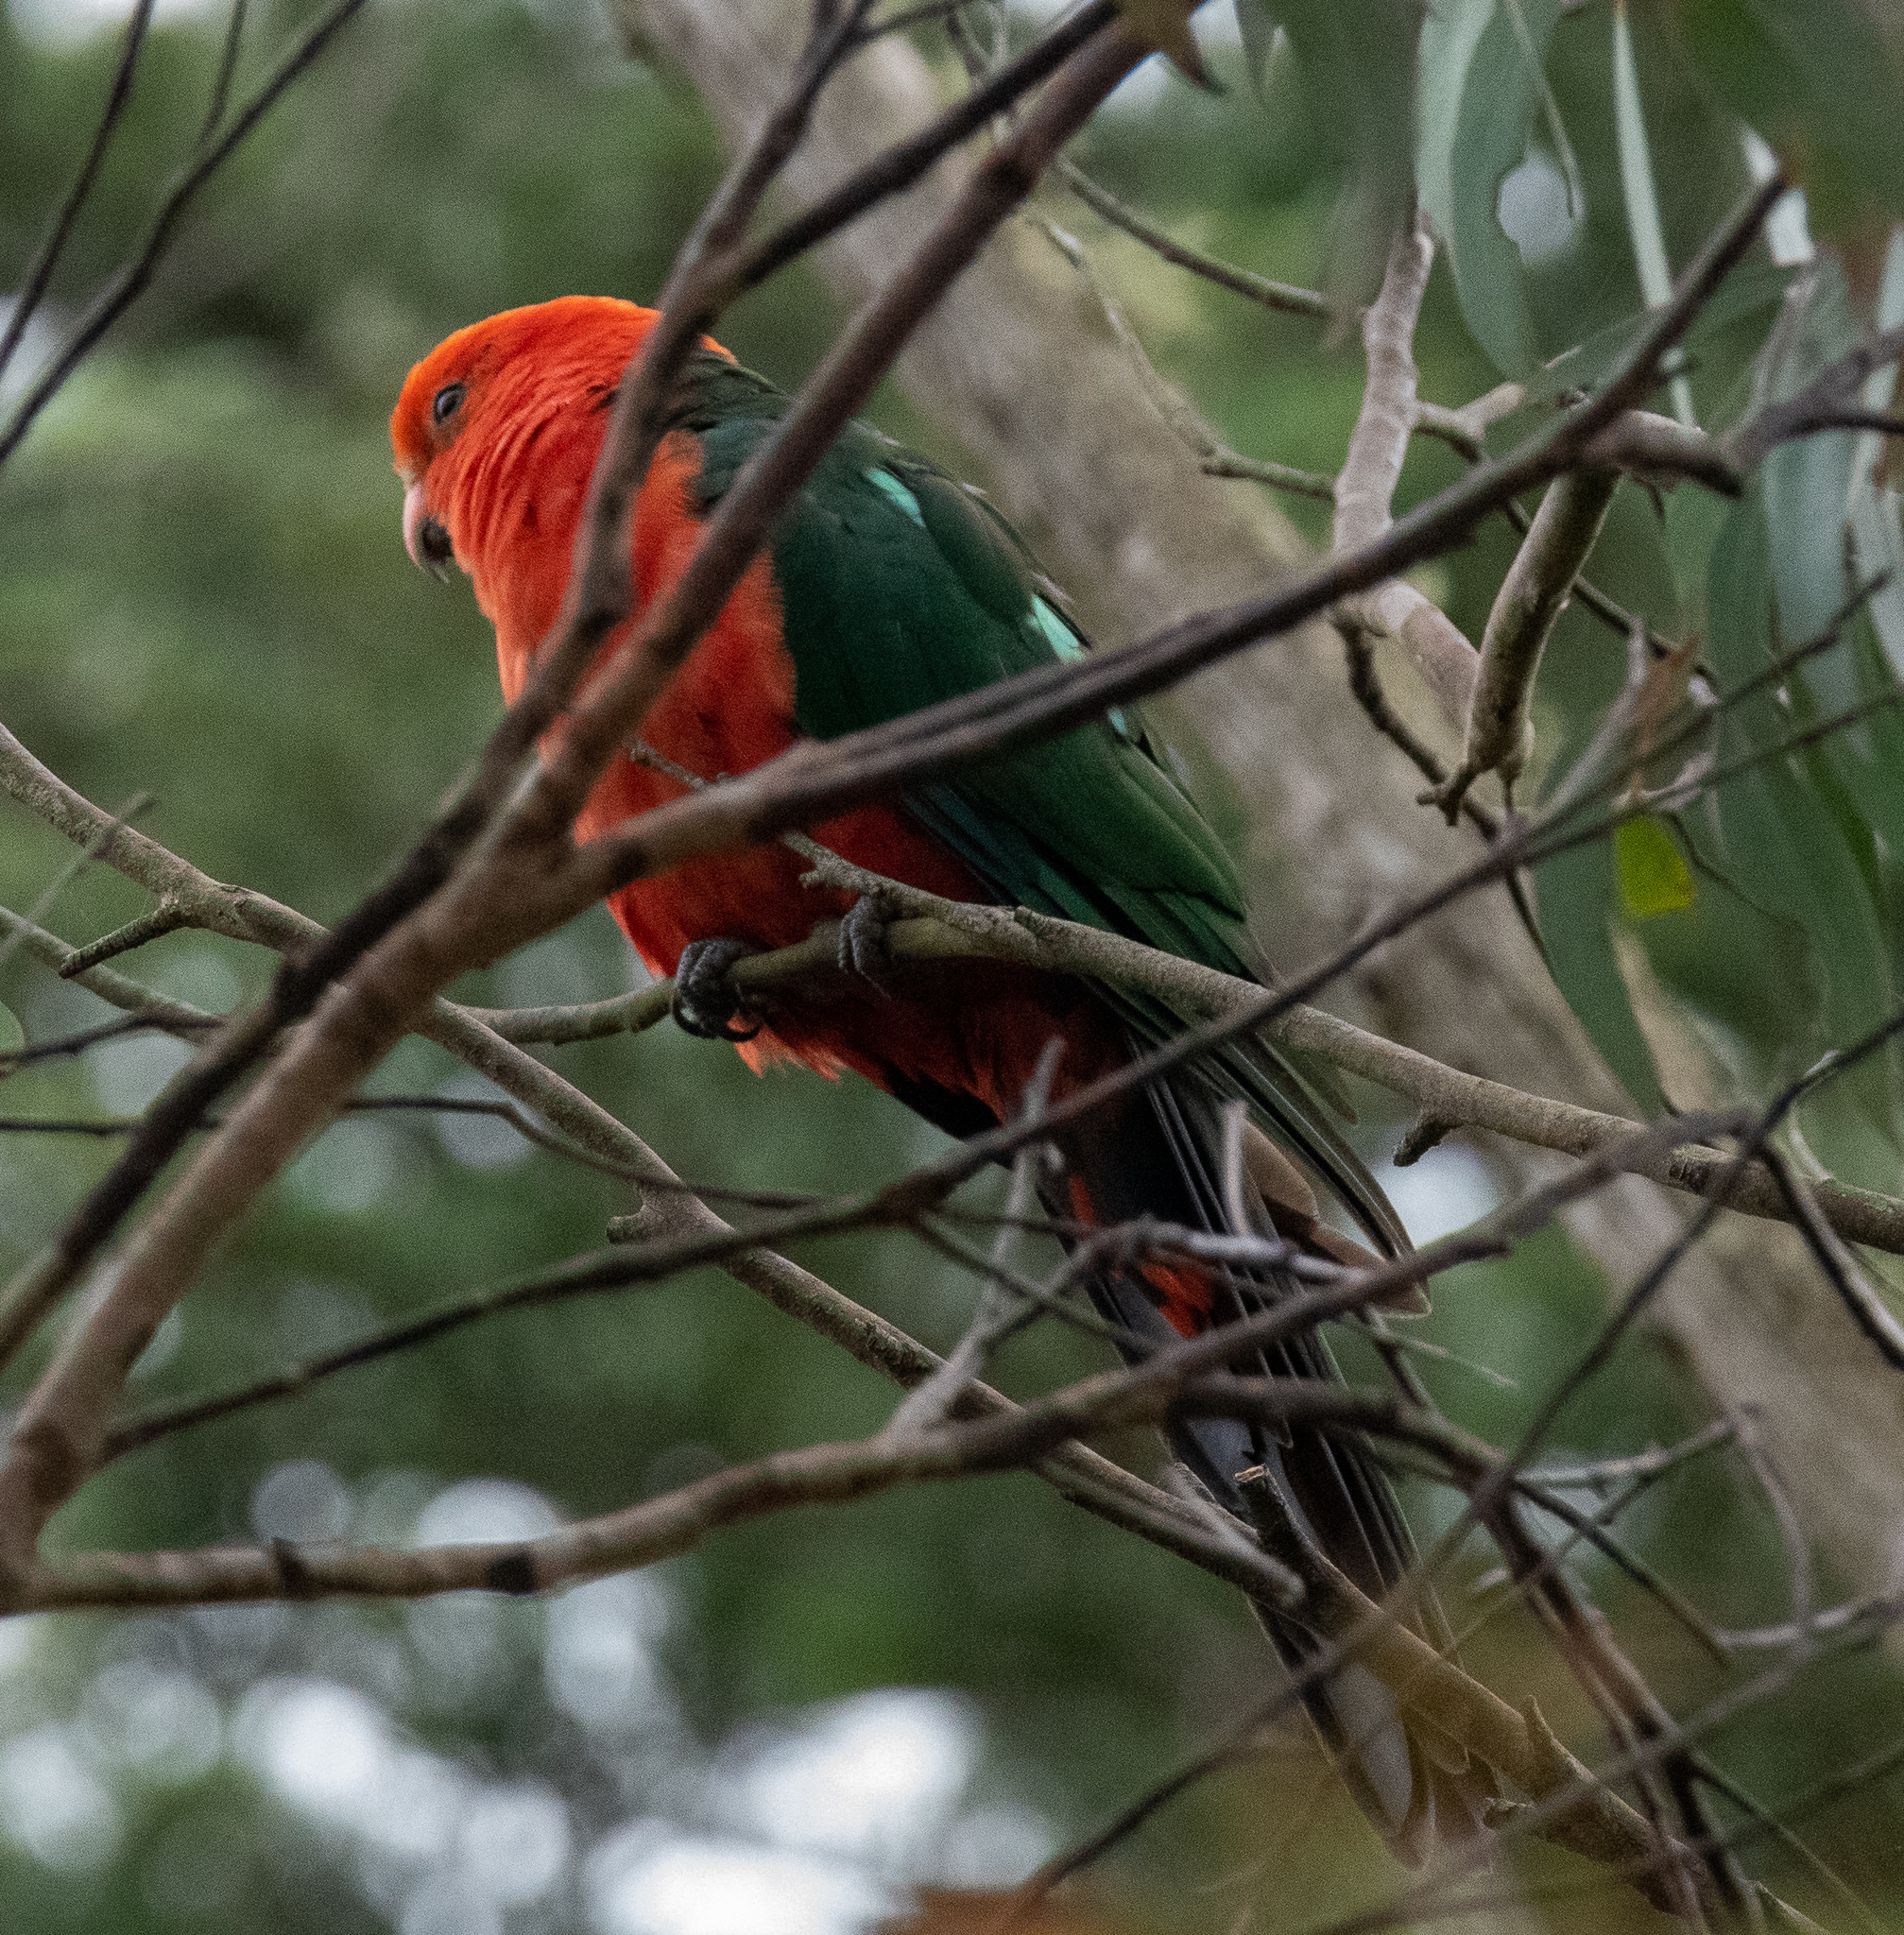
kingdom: Animalia
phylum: Chordata
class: Aves
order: Psittaciformes
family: Psittacidae
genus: Alisterus
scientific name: Alisterus scapularis
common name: Australian king parrot
